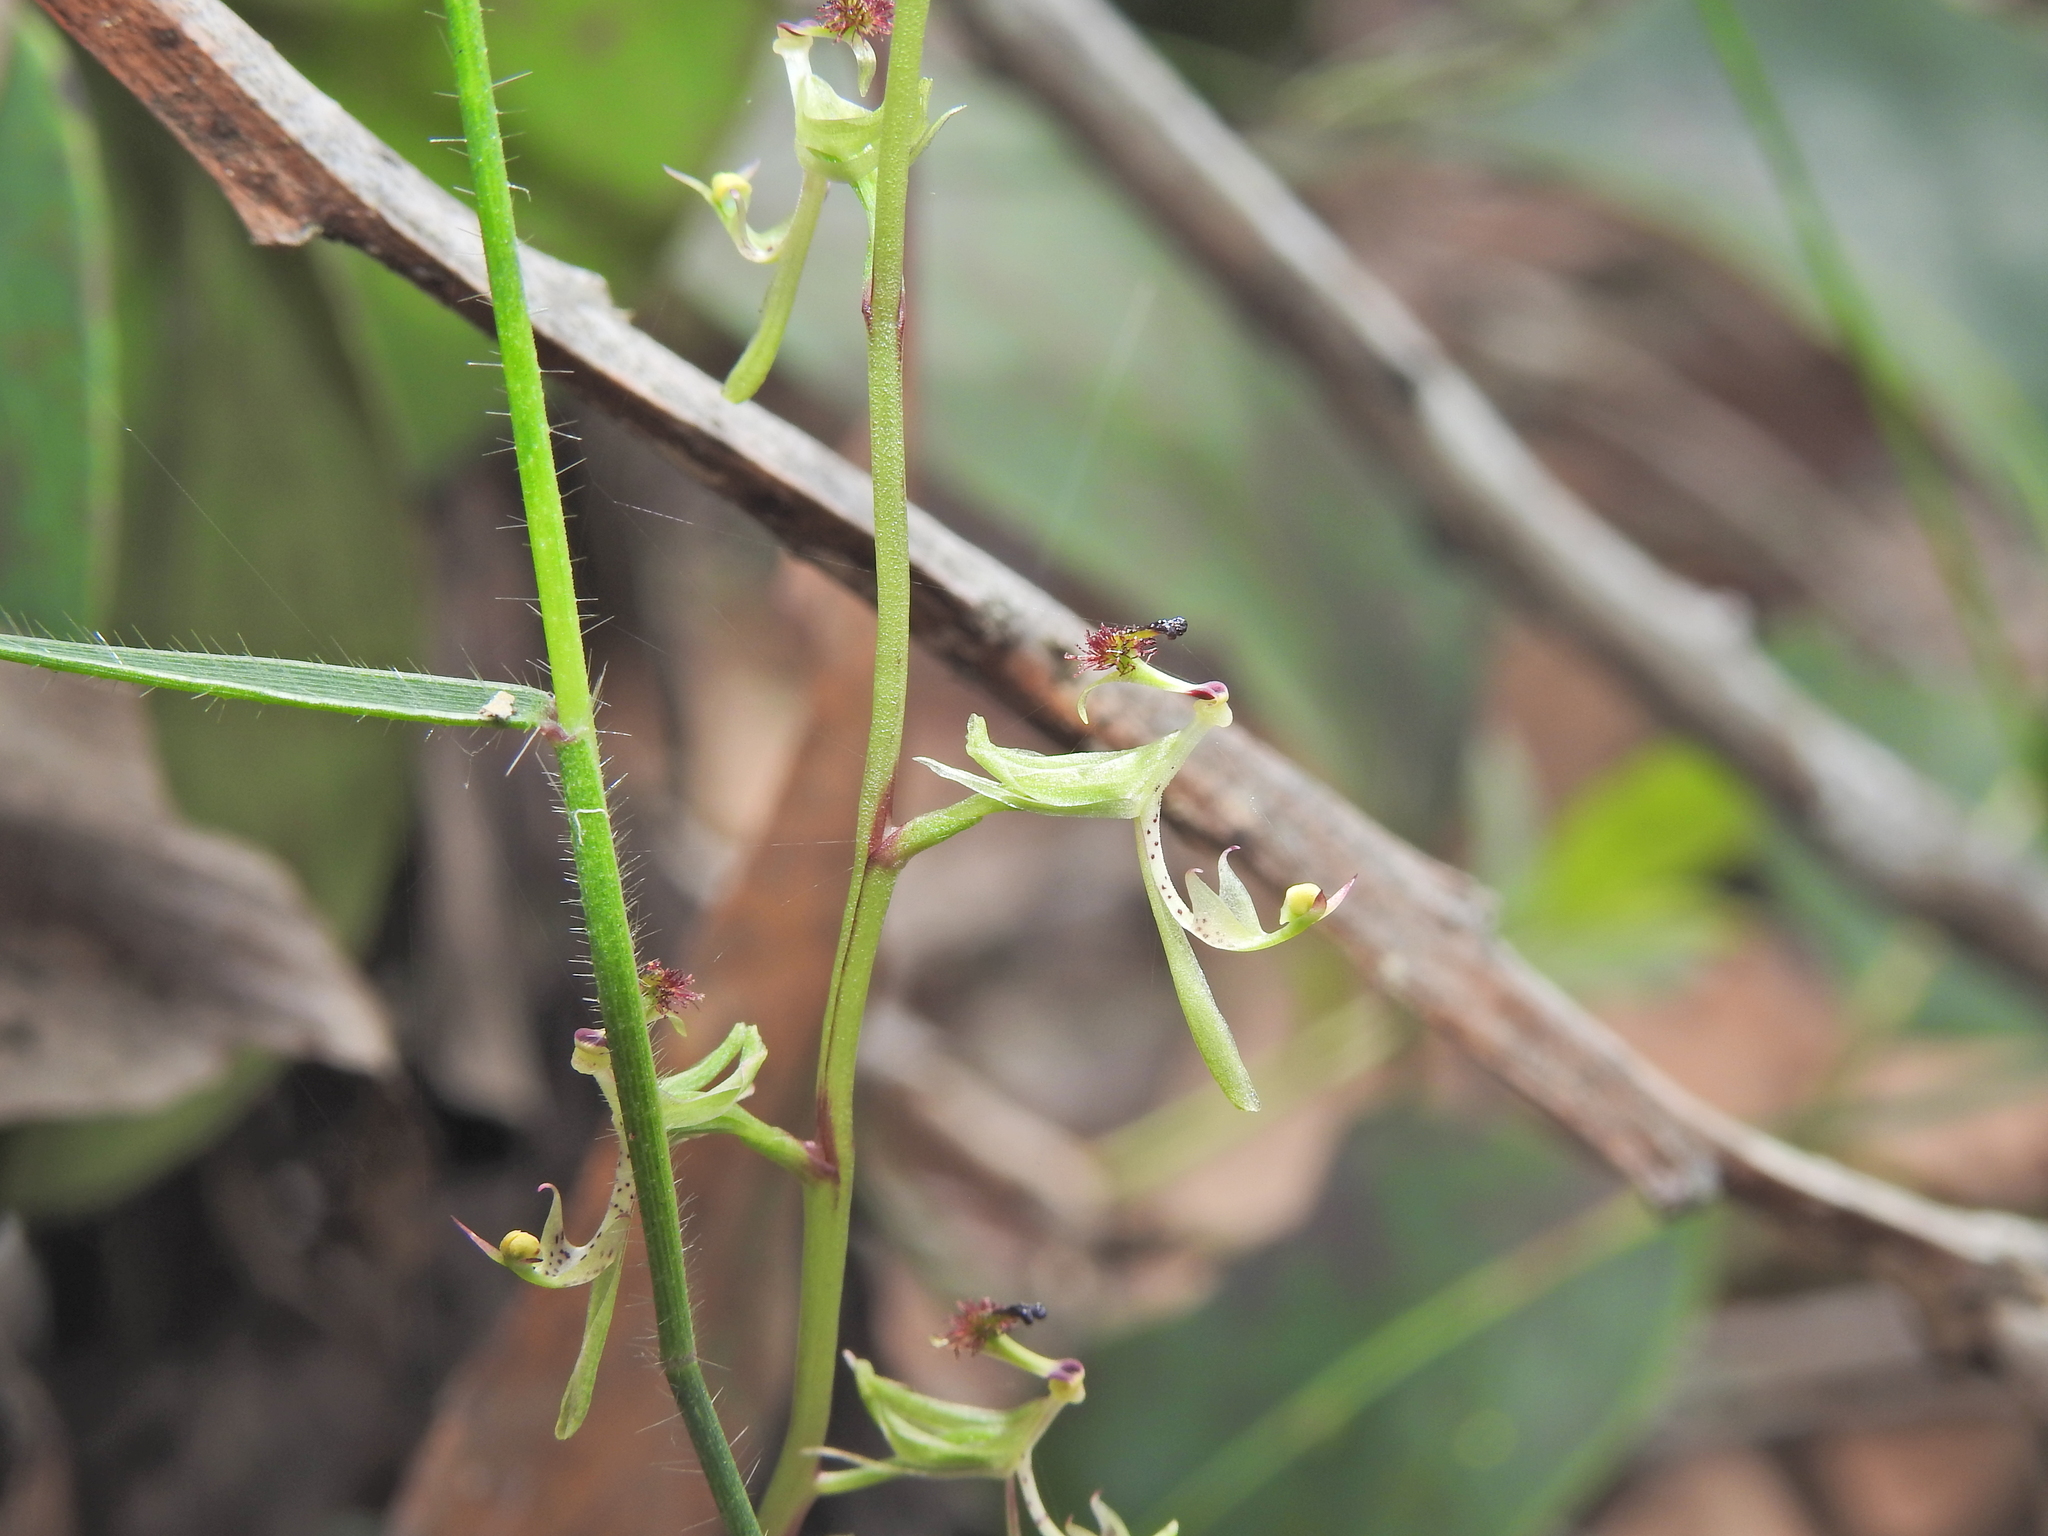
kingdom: Plantae
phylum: Tracheophyta
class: Liliopsida
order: Asparagales
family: Orchidaceae
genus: Arthrochilus
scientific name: Arthrochilus irritabilis
